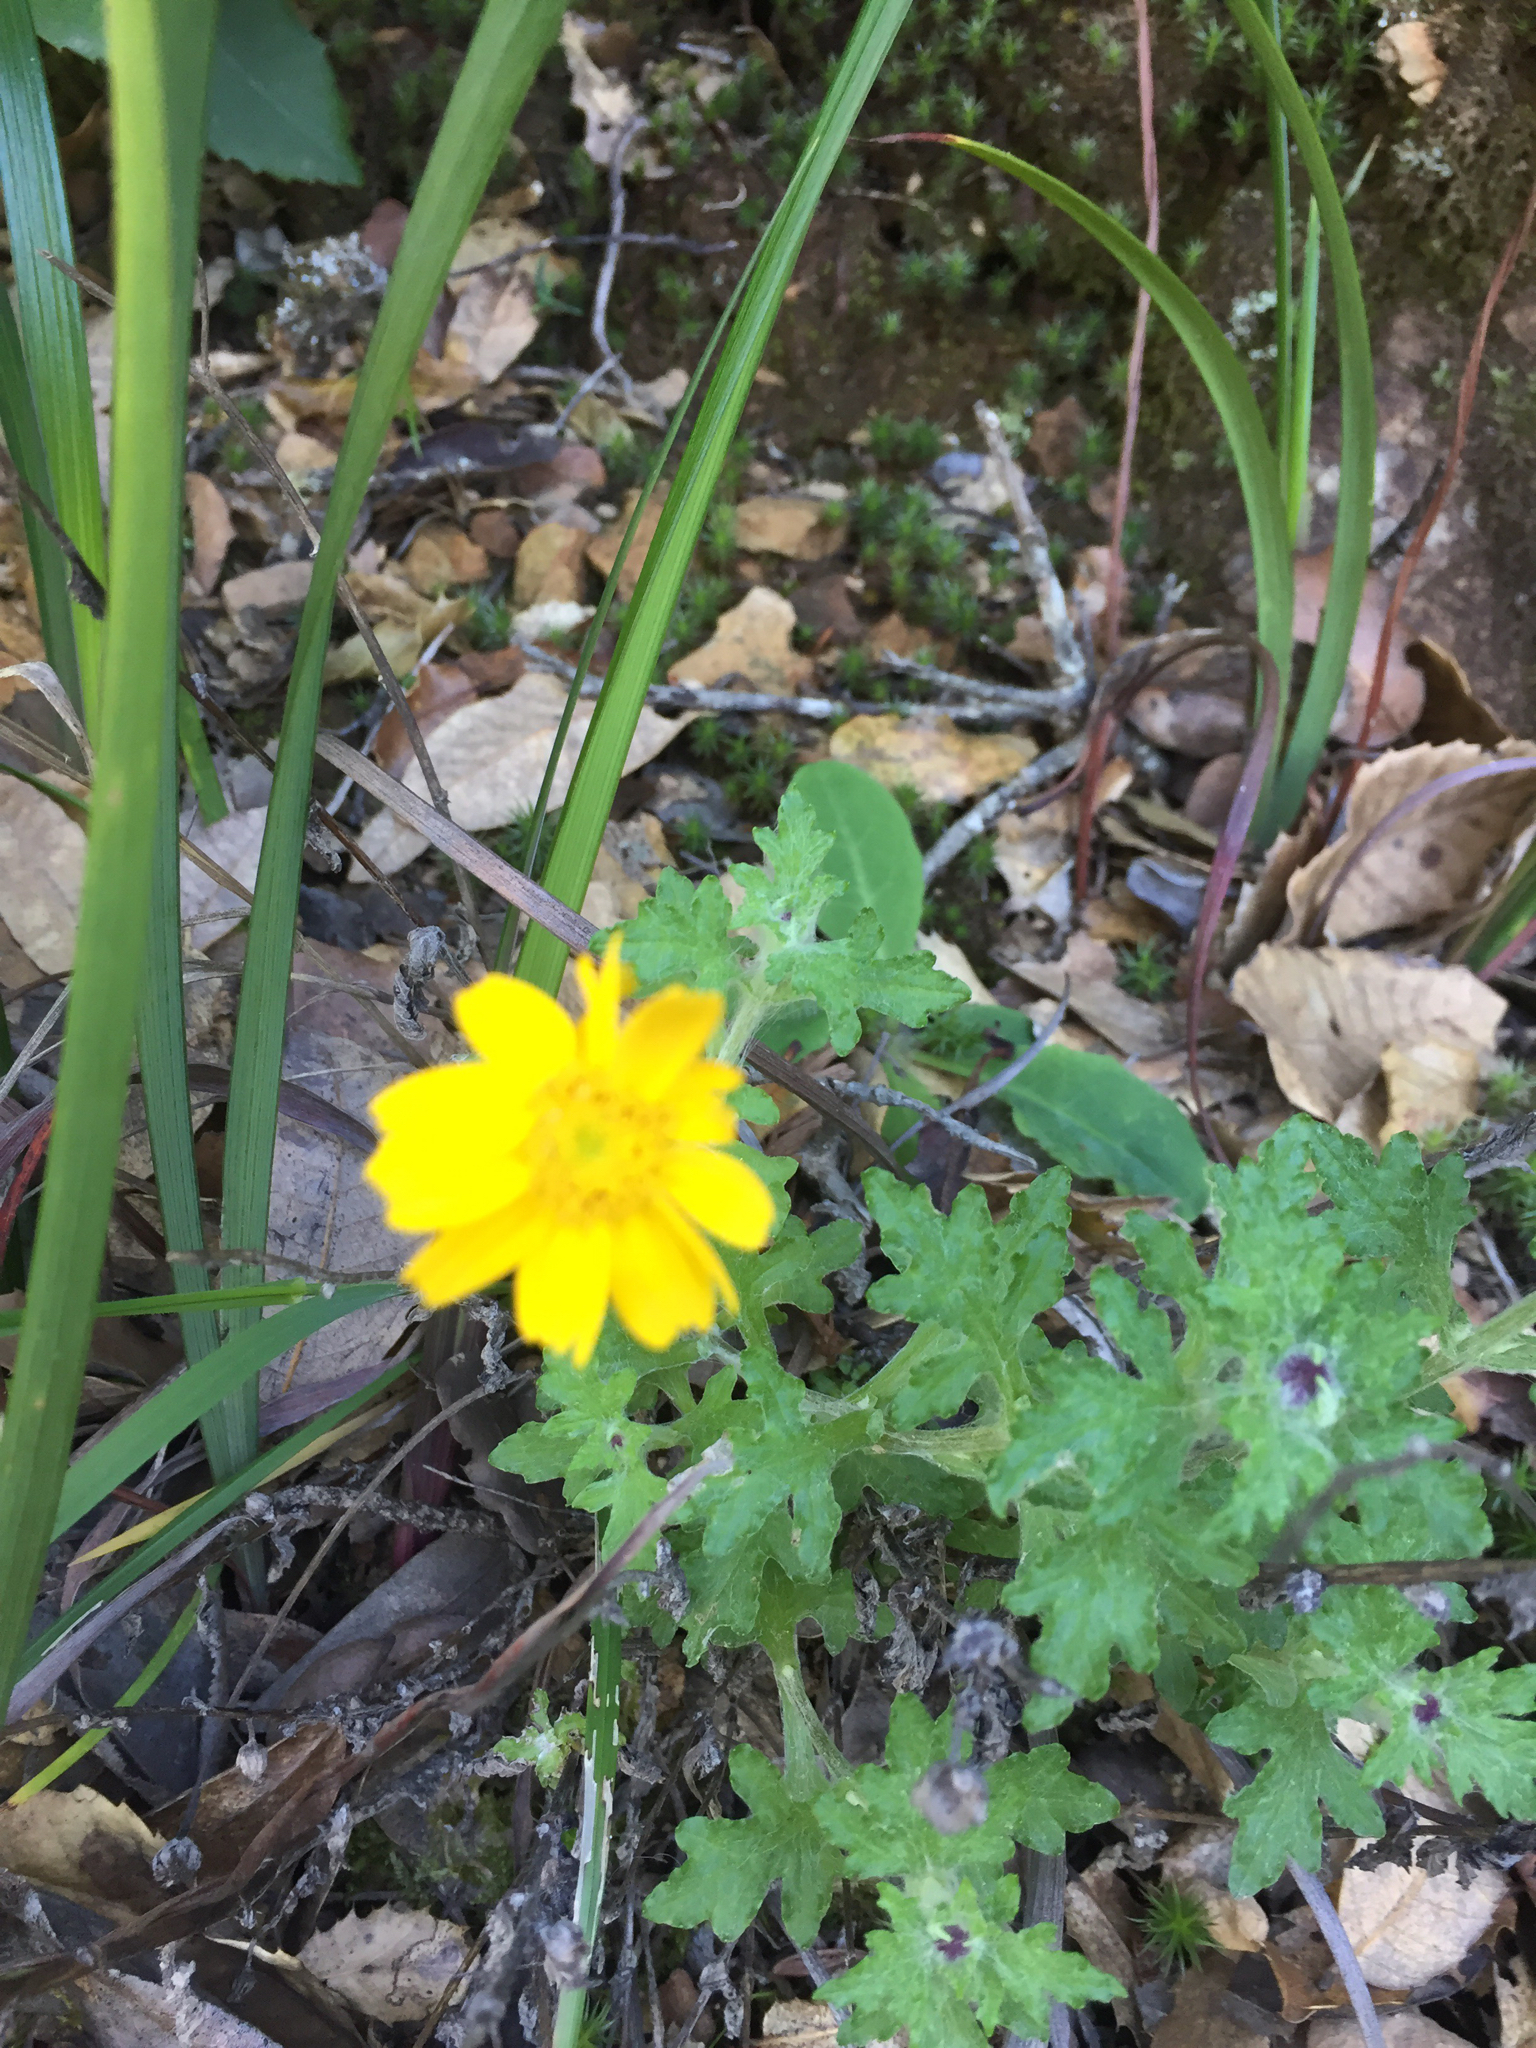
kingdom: Plantae
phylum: Tracheophyta
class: Magnoliopsida
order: Asterales
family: Asteraceae
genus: Eriophyllum
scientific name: Eriophyllum lanatum
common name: Common woolly-sunflower
